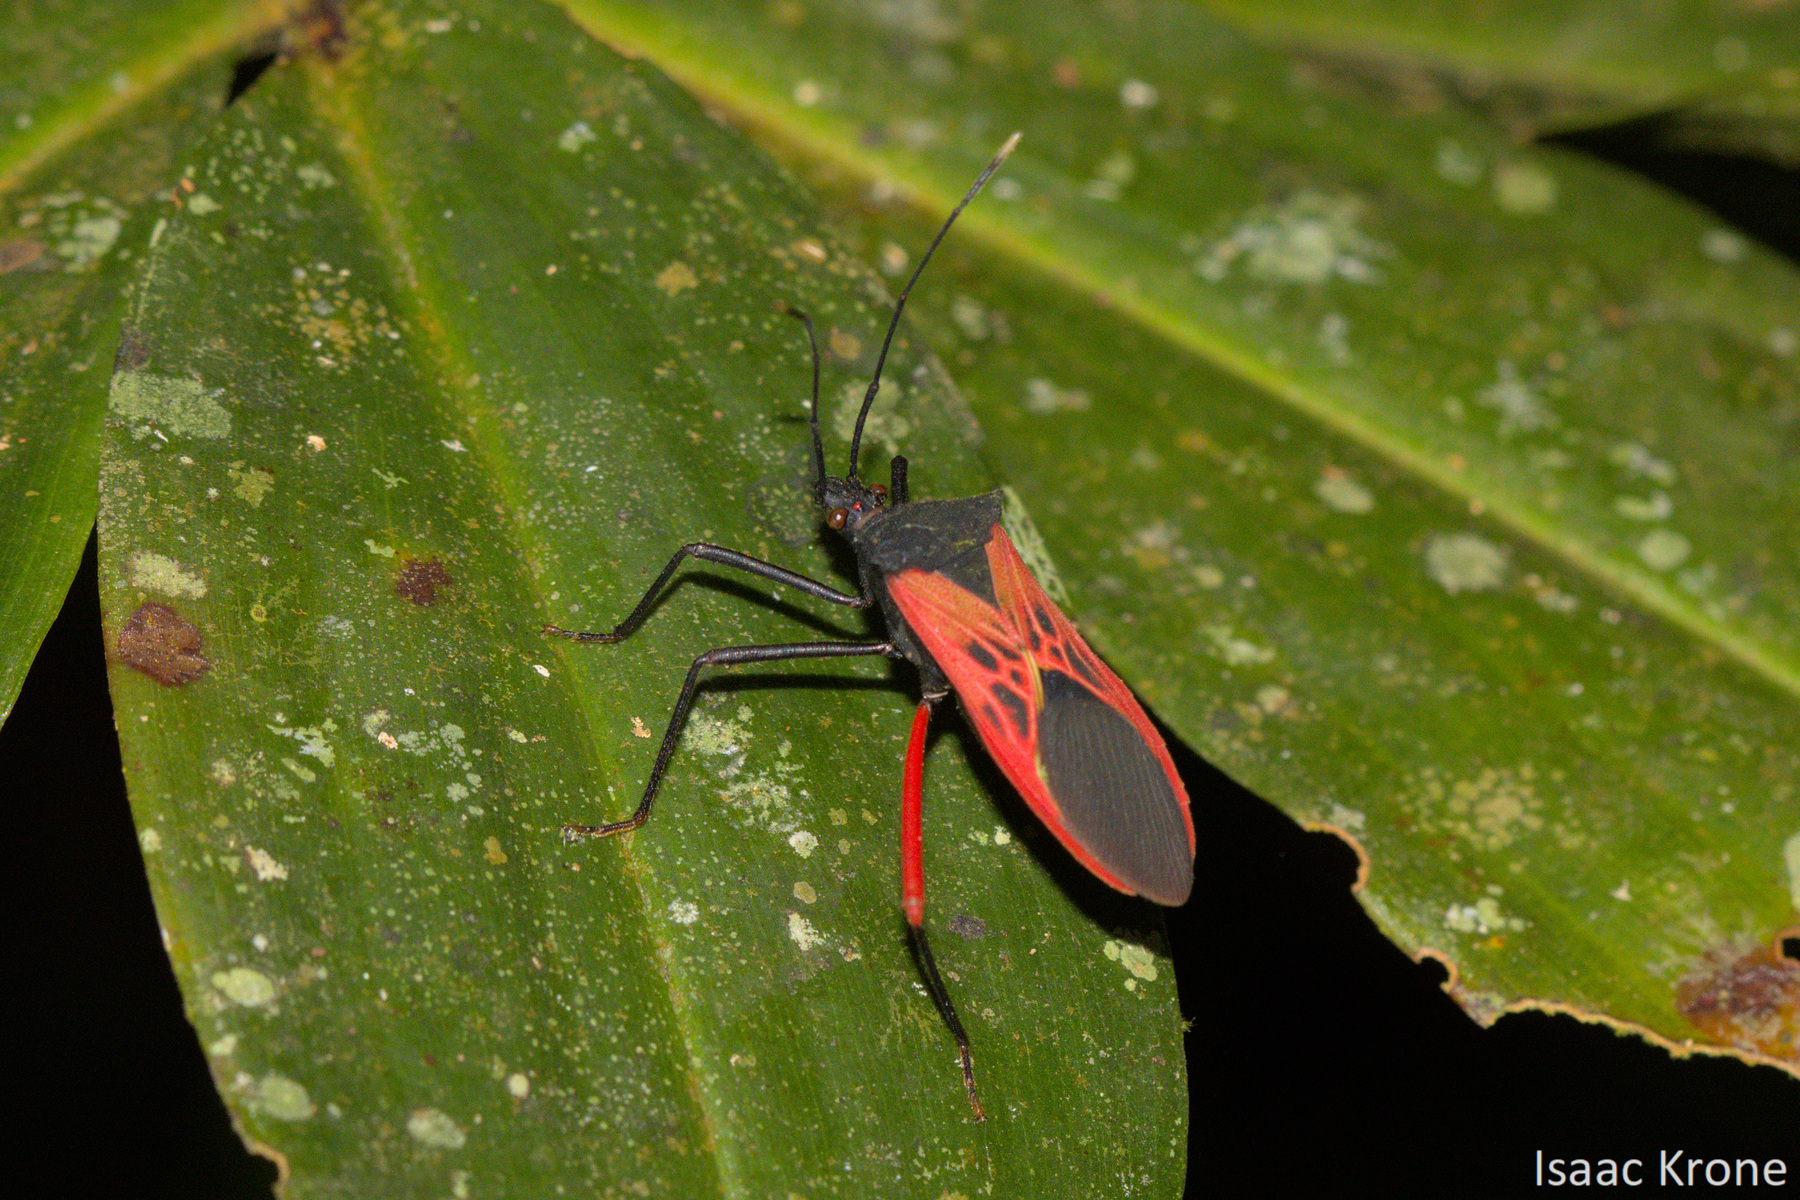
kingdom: Animalia
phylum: Arthropoda
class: Insecta
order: Hemiptera
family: Coreidae
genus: Leptoscelis
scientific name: Leptoscelis excellens
